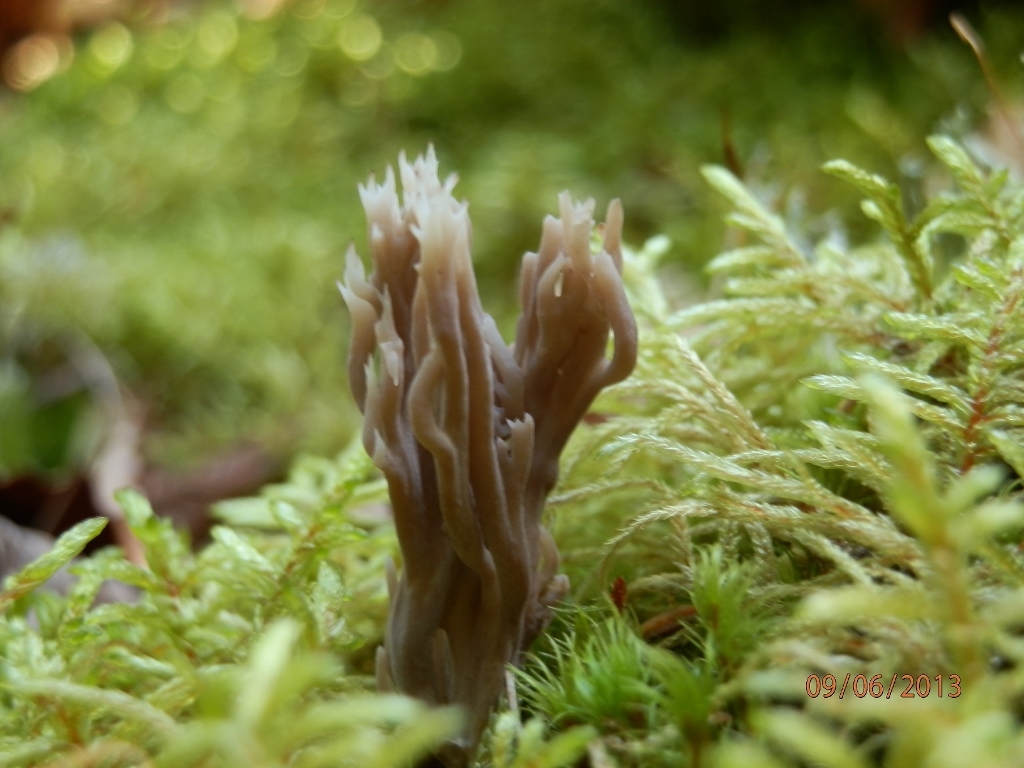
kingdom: Fungi
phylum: Basidiomycota
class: Agaricomycetes
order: Cantharellales
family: Hydnaceae
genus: Clavulina
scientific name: Clavulina cinerea
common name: Grey coral
